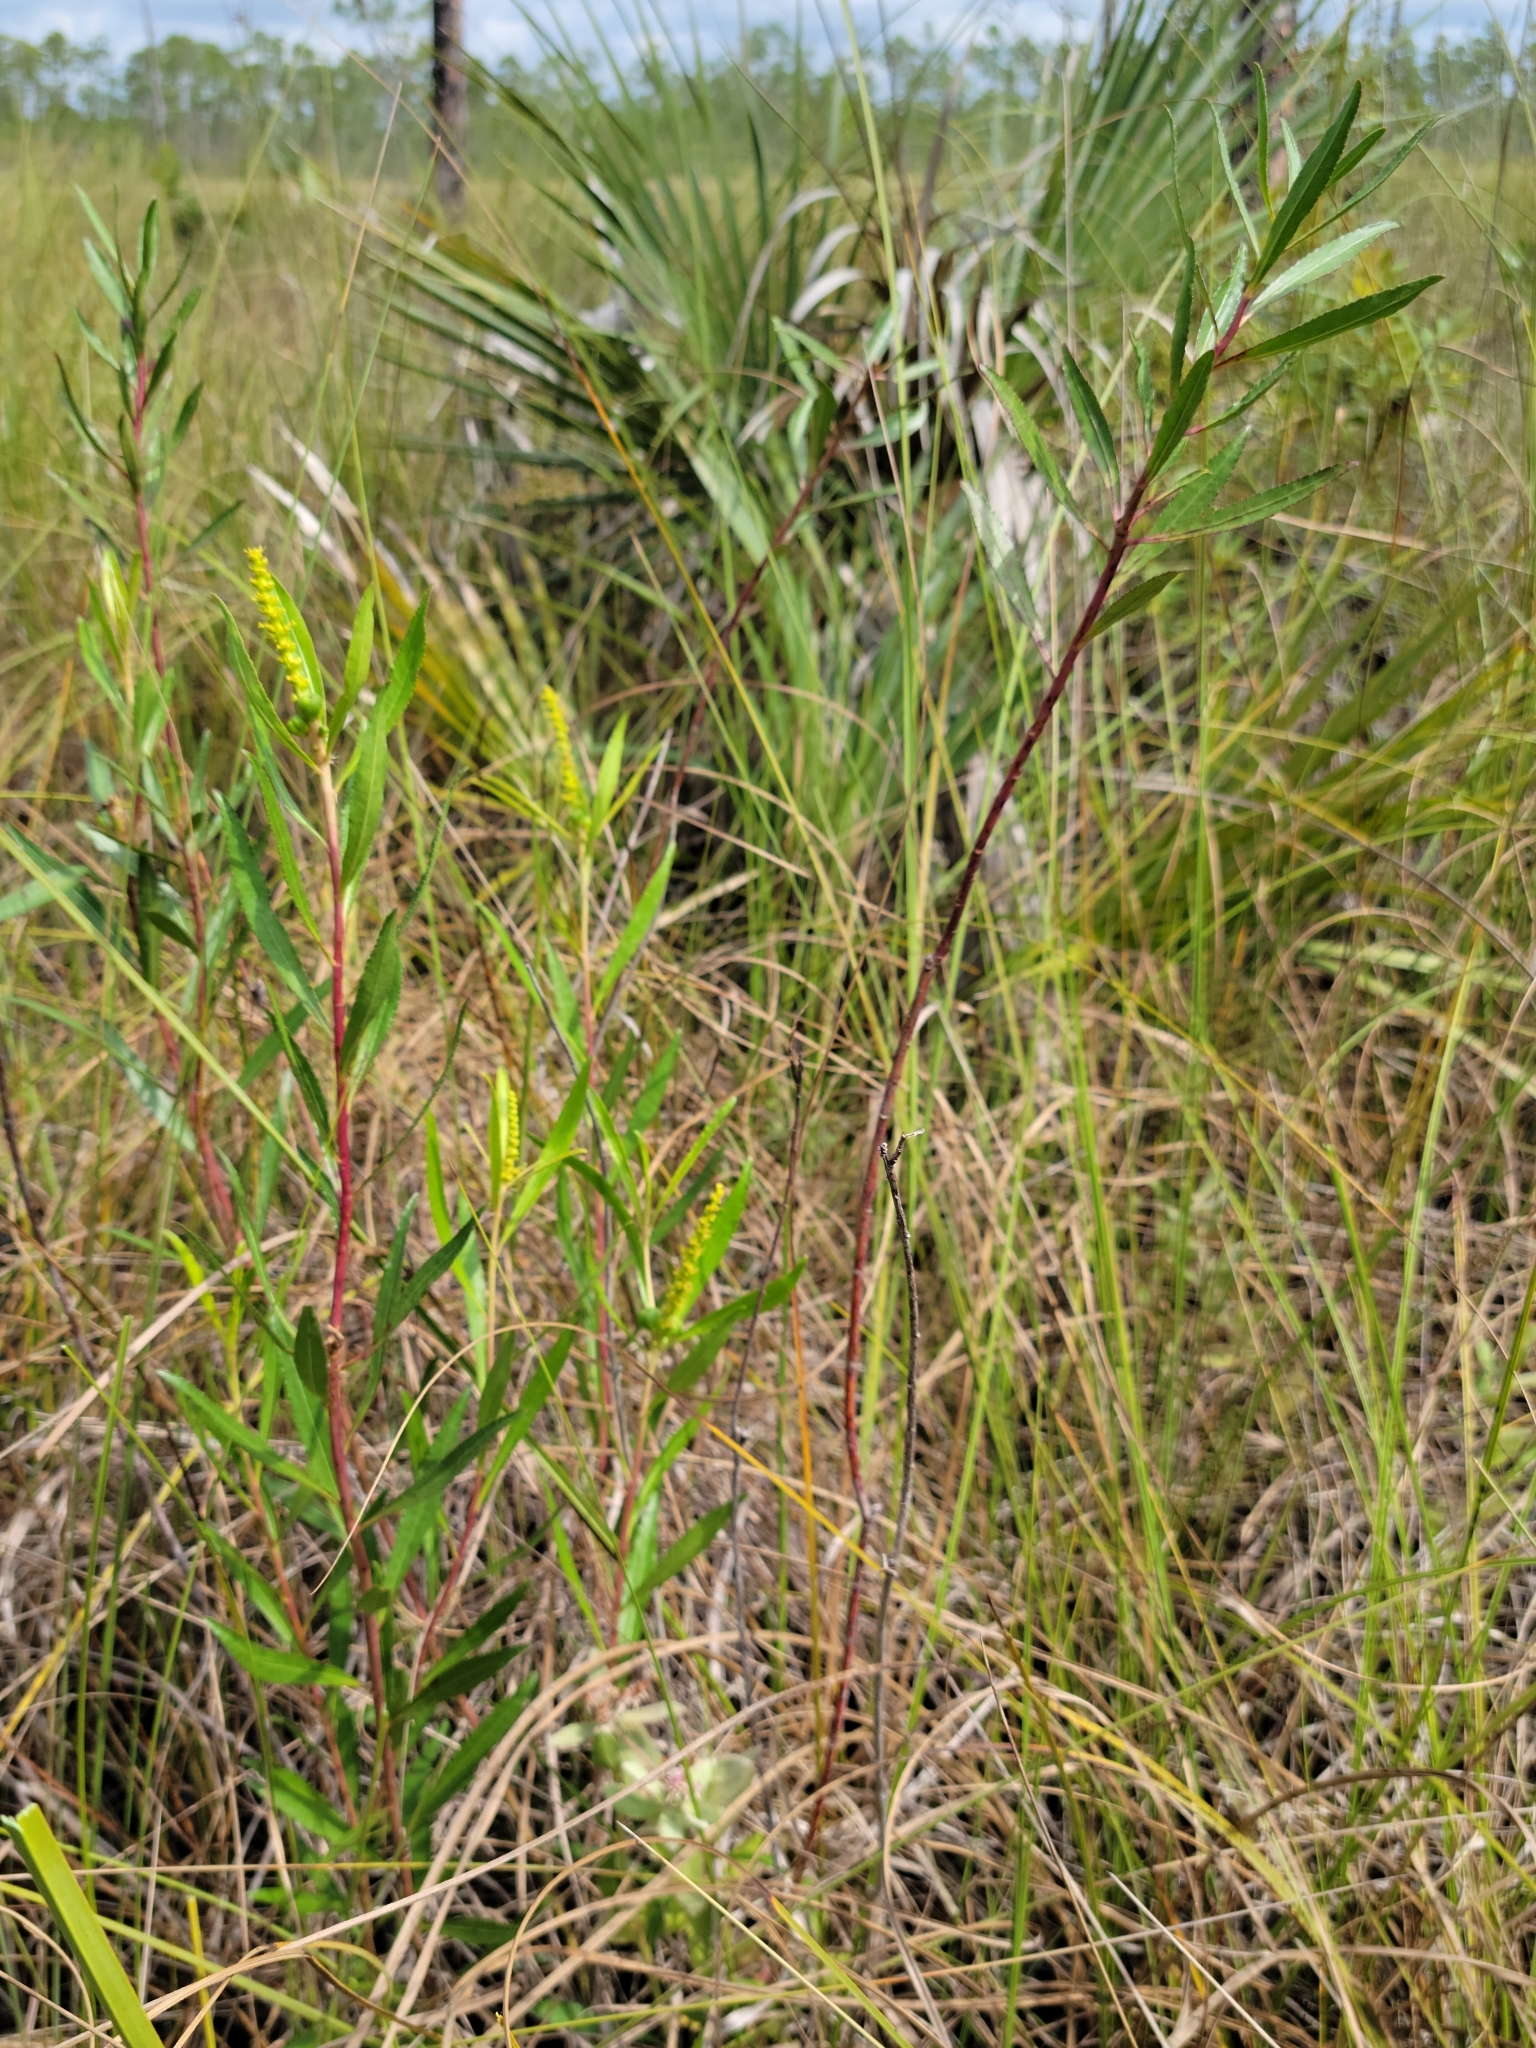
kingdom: Plantae
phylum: Tracheophyta
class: Magnoliopsida
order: Malpighiales
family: Euphorbiaceae
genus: Stillingia
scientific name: Stillingia sylvatica
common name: Queen's-delight
